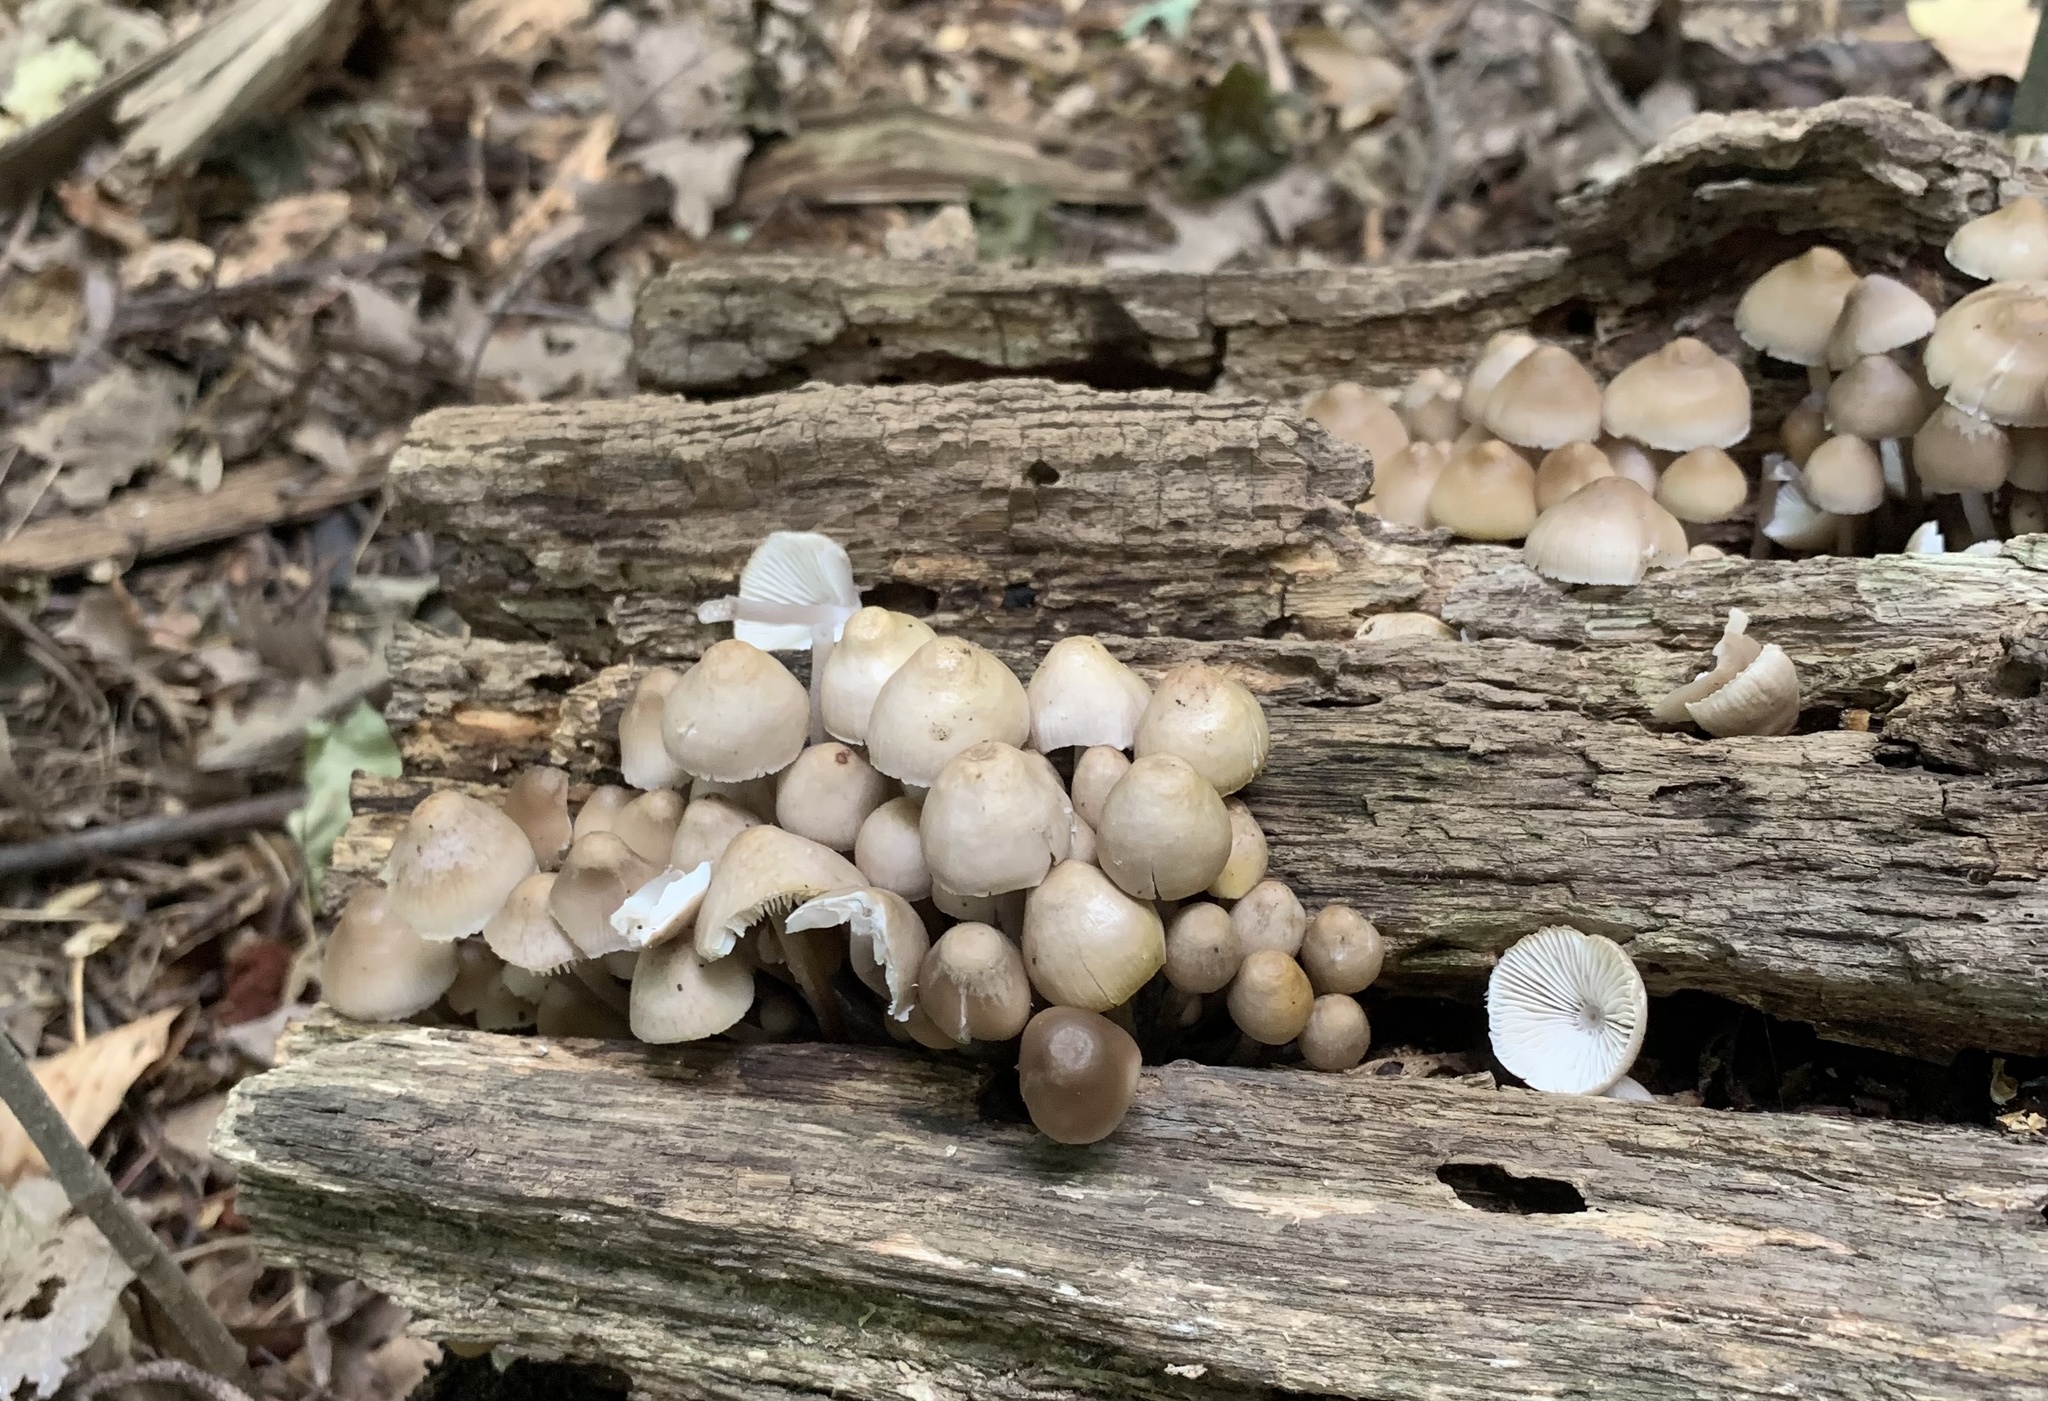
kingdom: Fungi
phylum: Basidiomycota
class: Agaricomycetes
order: Agaricales
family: Mycenaceae
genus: Mycena
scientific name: Mycena inclinata
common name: Clustered bonnet
